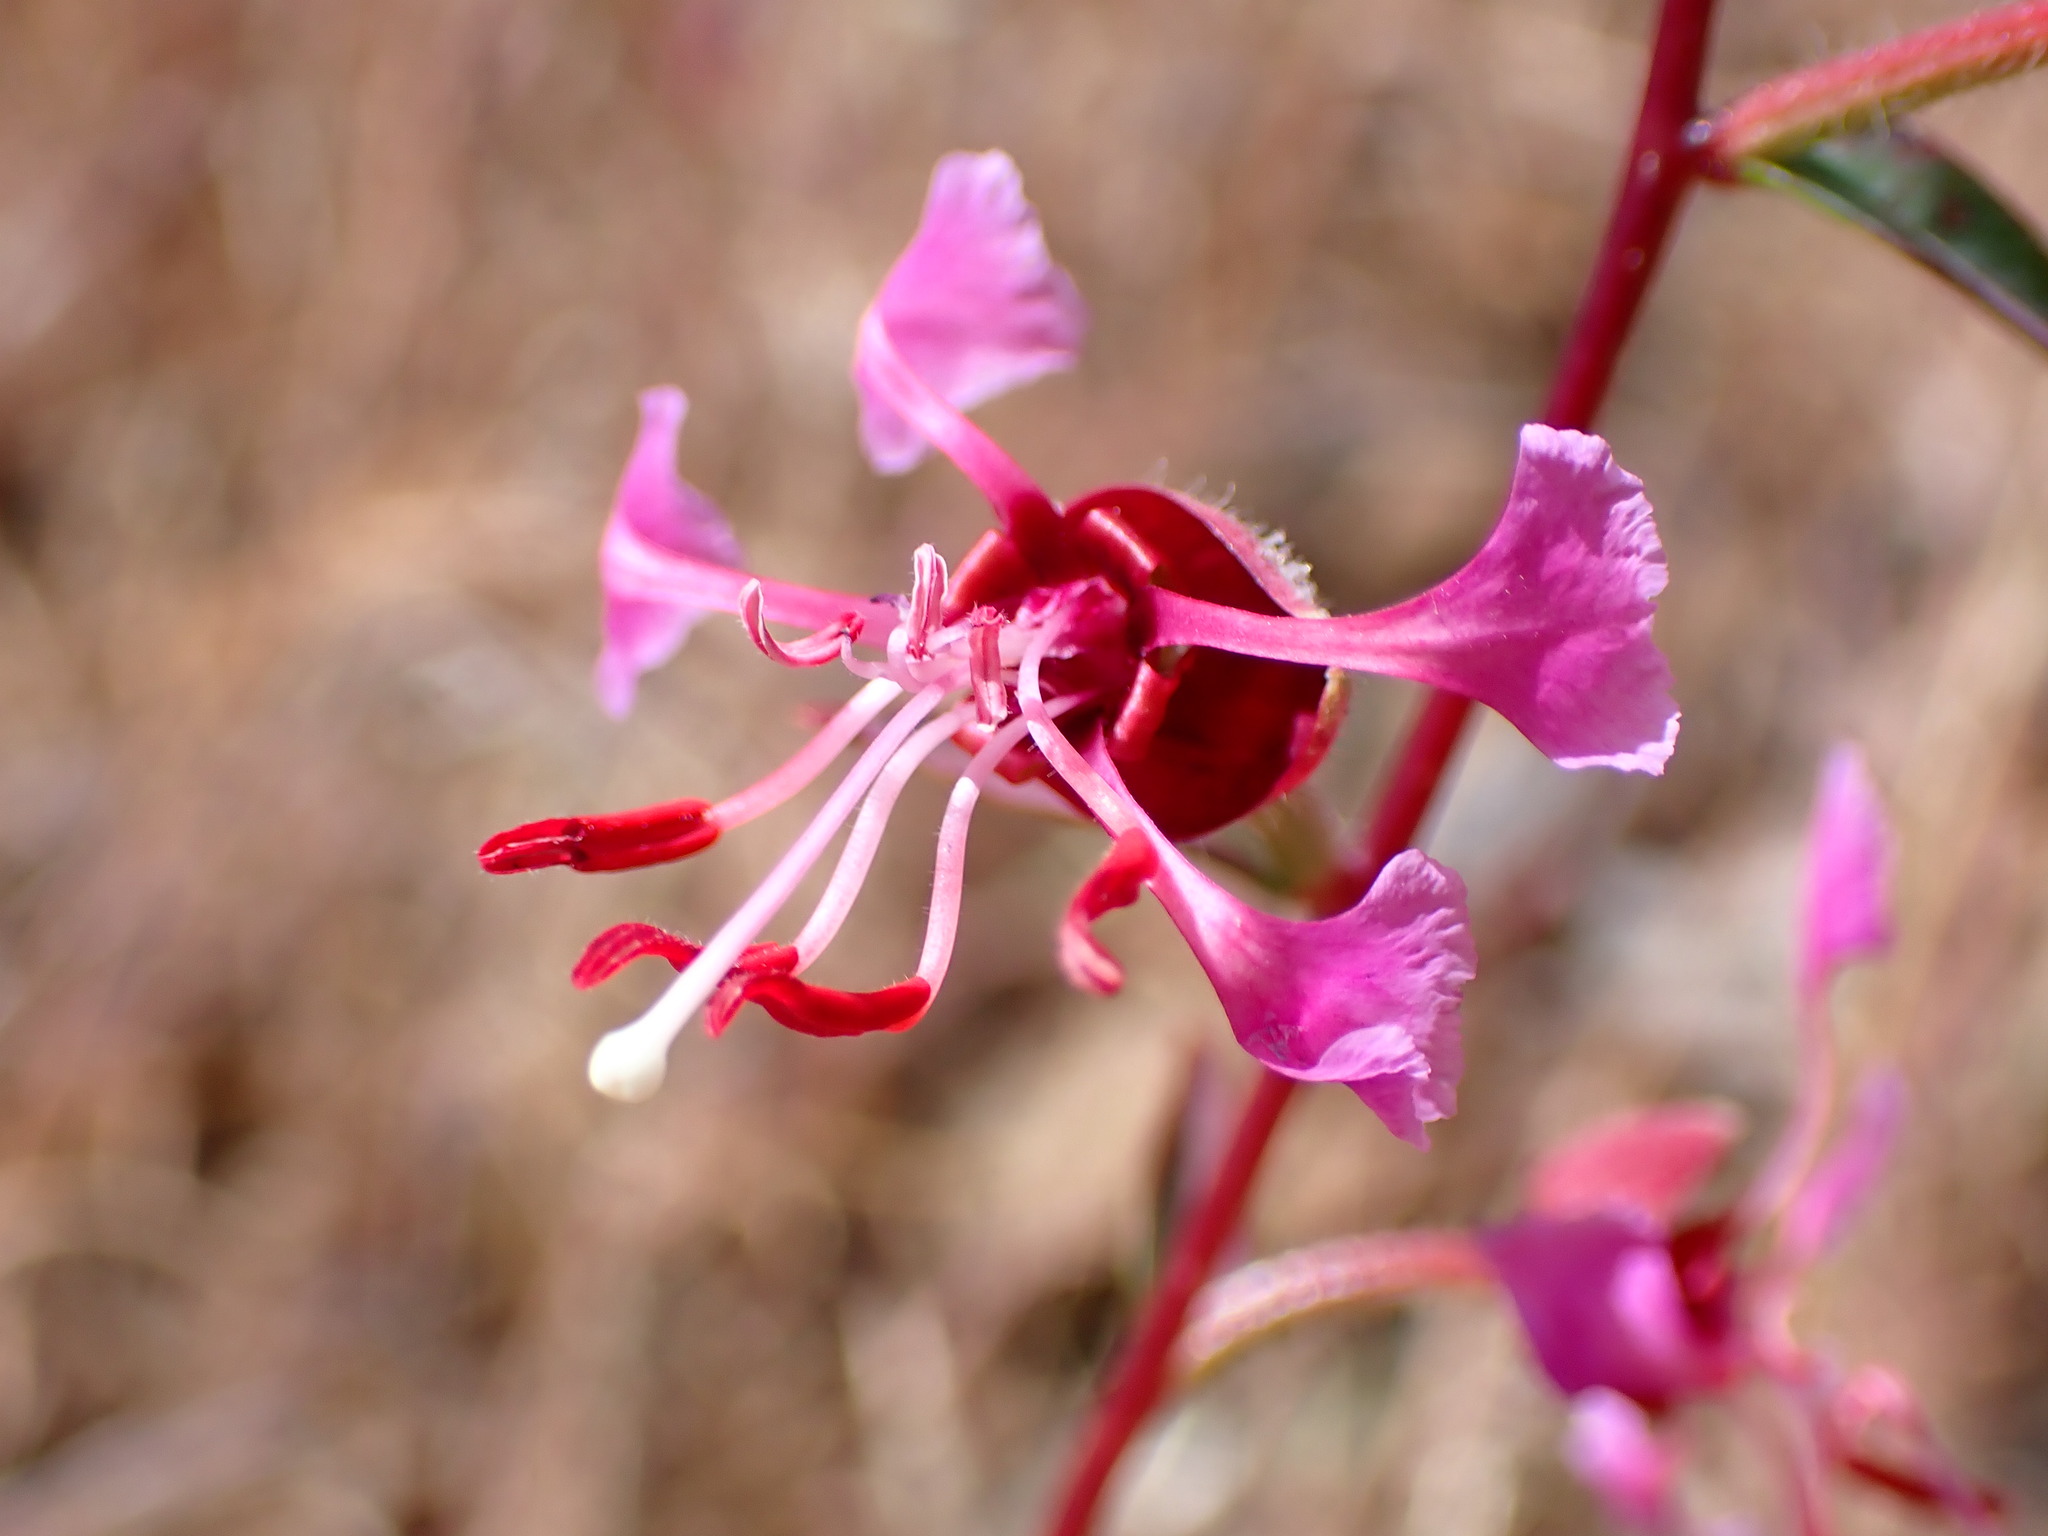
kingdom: Plantae
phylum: Tracheophyta
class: Magnoliopsida
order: Myrtales
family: Onagraceae
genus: Clarkia
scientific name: Clarkia unguiculata
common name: Clarkia
